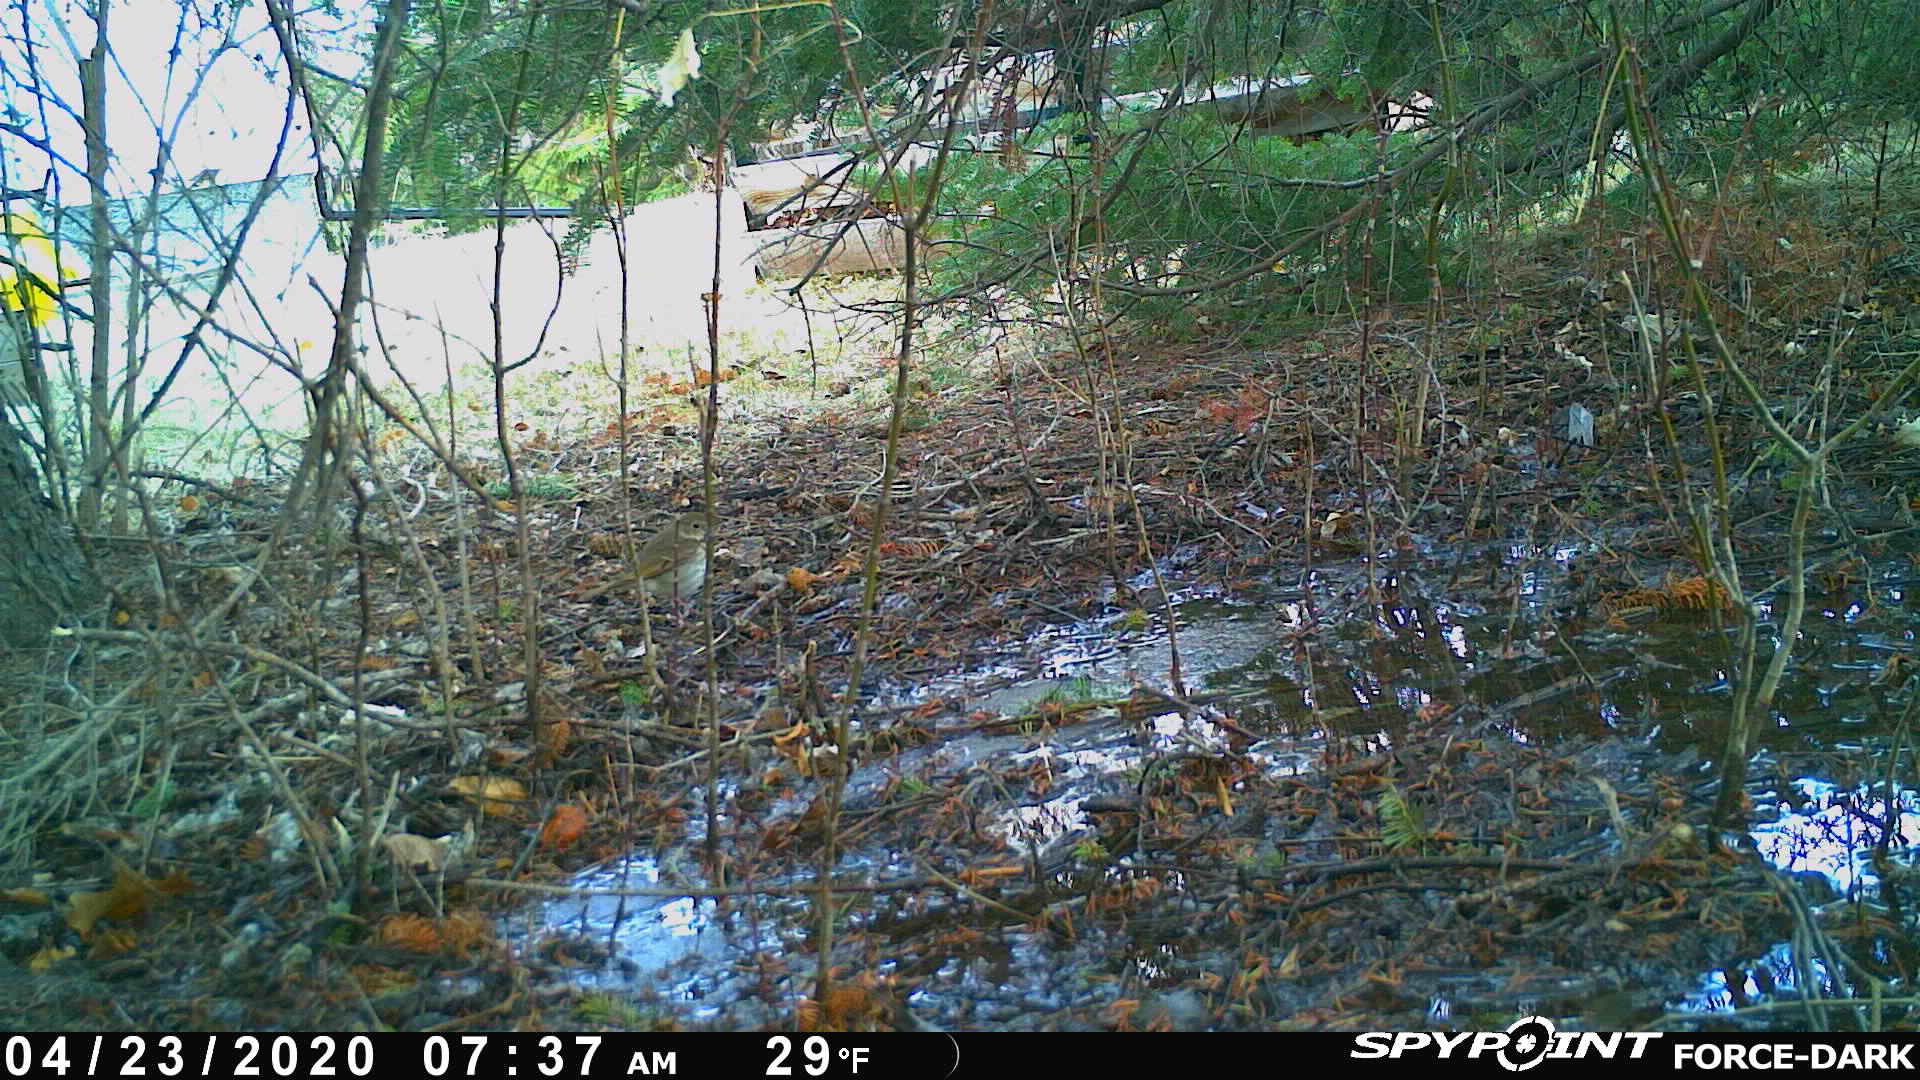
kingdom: Animalia
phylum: Chordata
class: Aves
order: Passeriformes
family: Turdidae
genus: Catharus
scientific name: Catharus guttatus
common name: Hermit thrush
